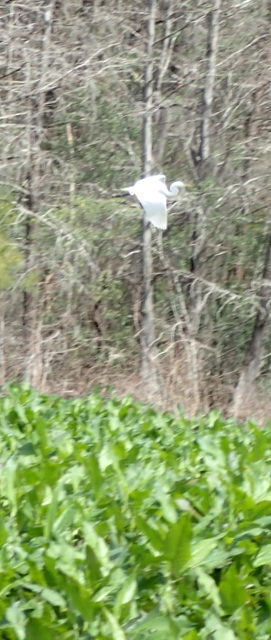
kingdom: Animalia
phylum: Chordata
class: Aves
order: Pelecaniformes
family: Ardeidae
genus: Ardea
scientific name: Ardea alba
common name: Great egret
